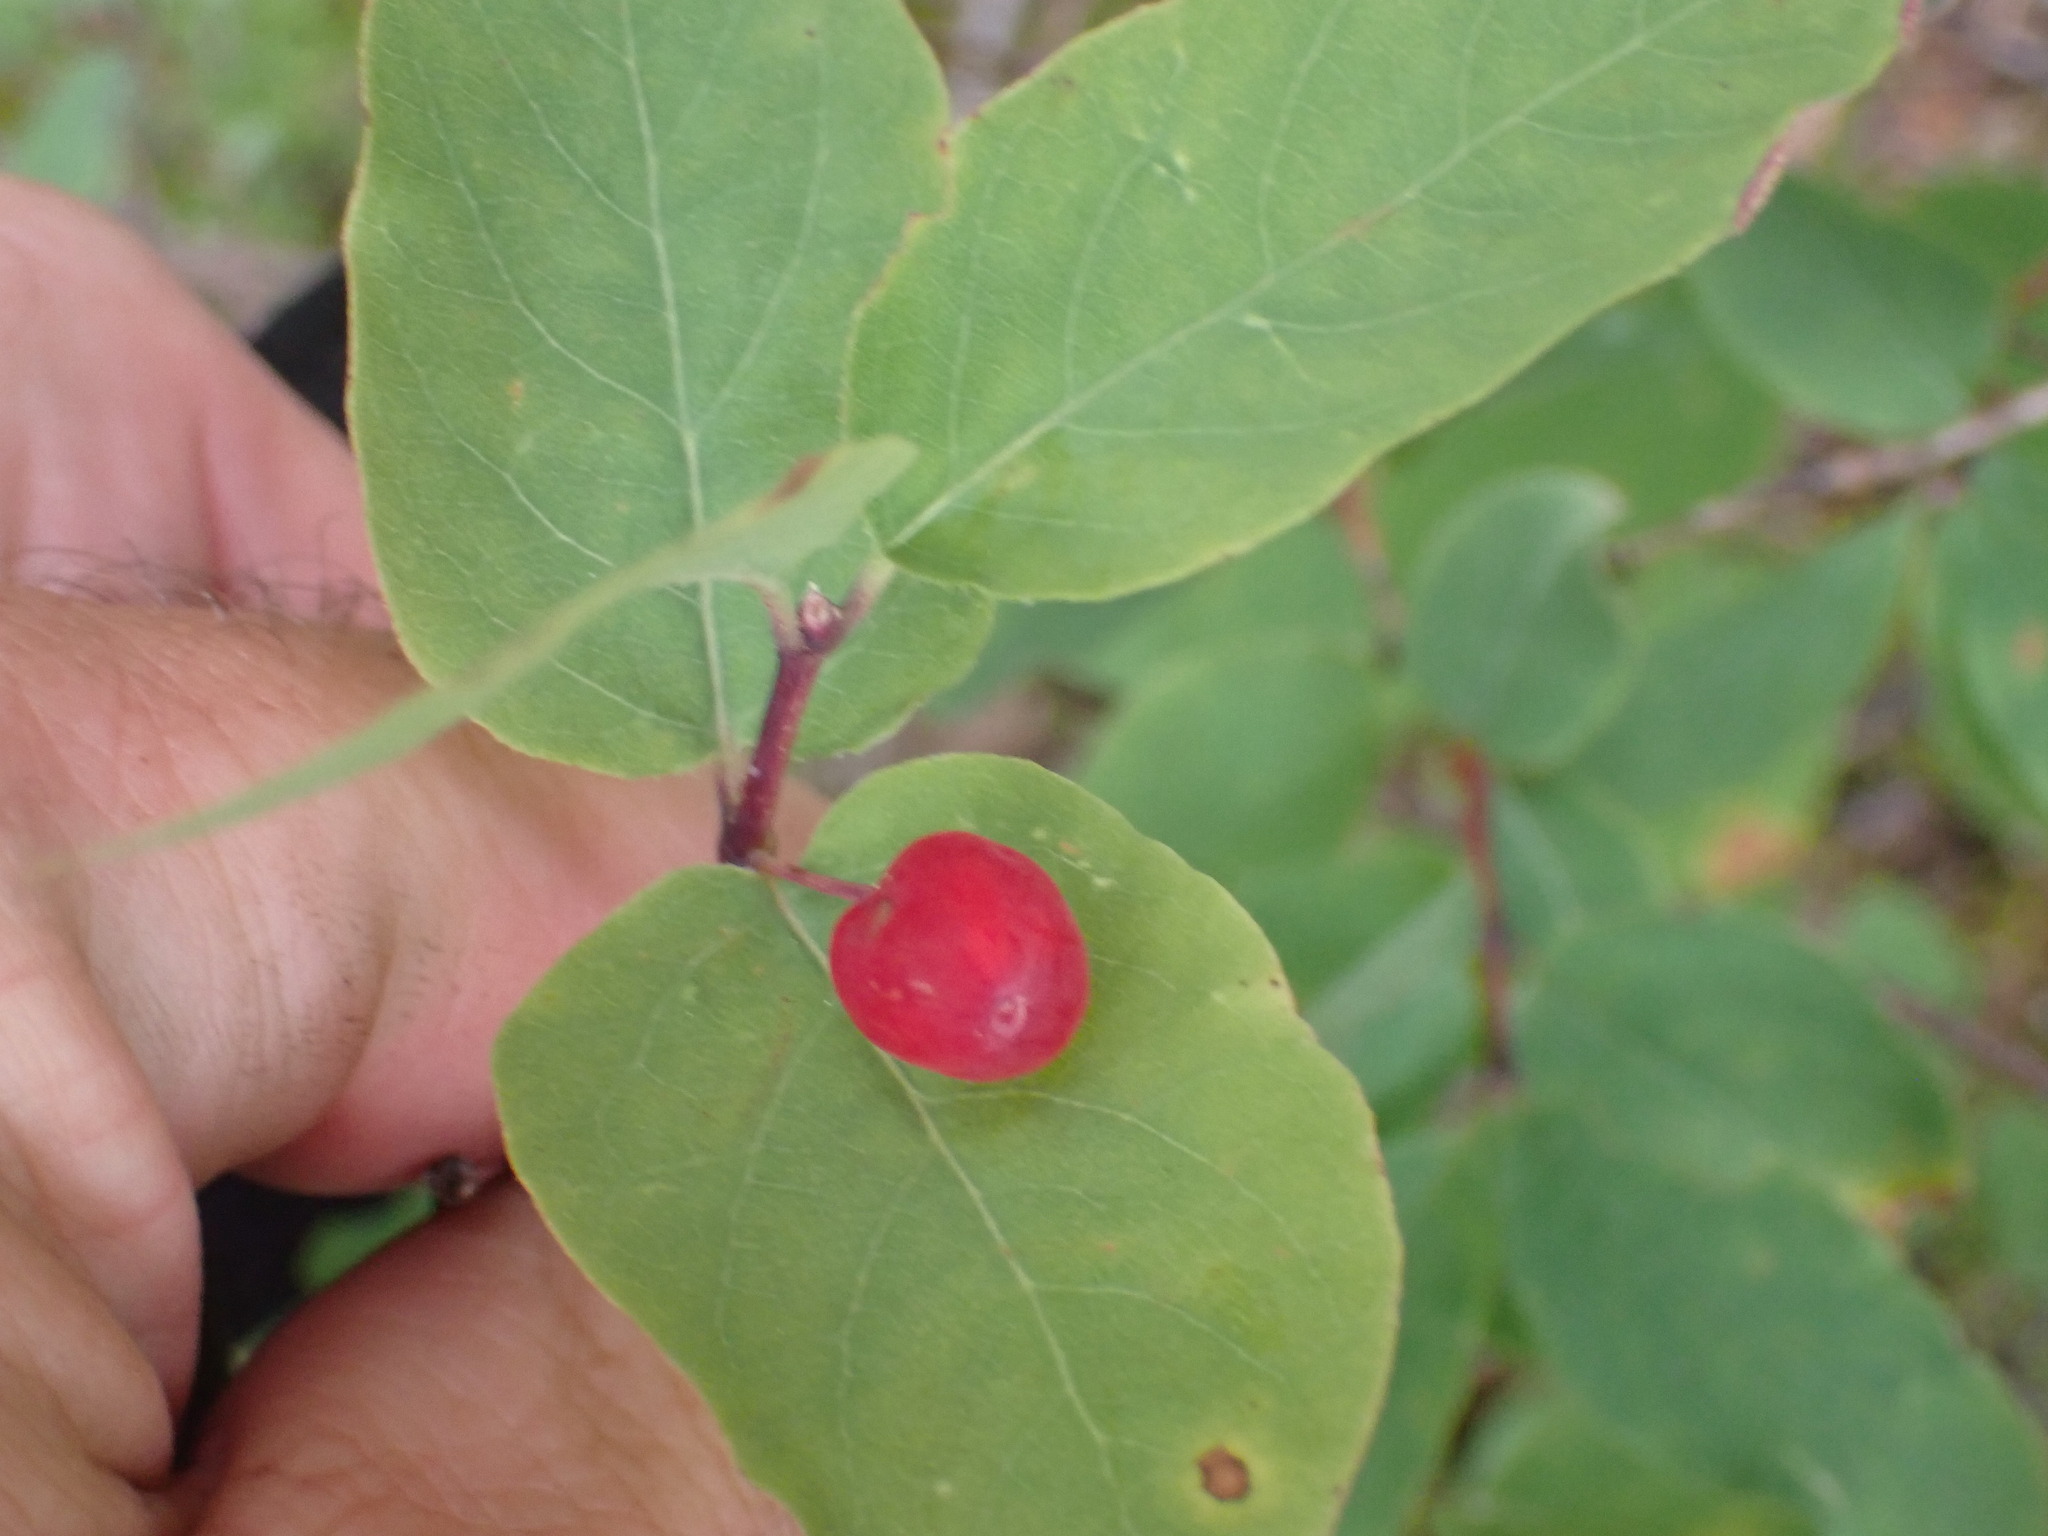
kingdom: Plantae
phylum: Tracheophyta
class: Magnoliopsida
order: Dipsacales
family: Caprifoliaceae
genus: Lonicera
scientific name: Lonicera utahensis
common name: Utah honeysuckle
